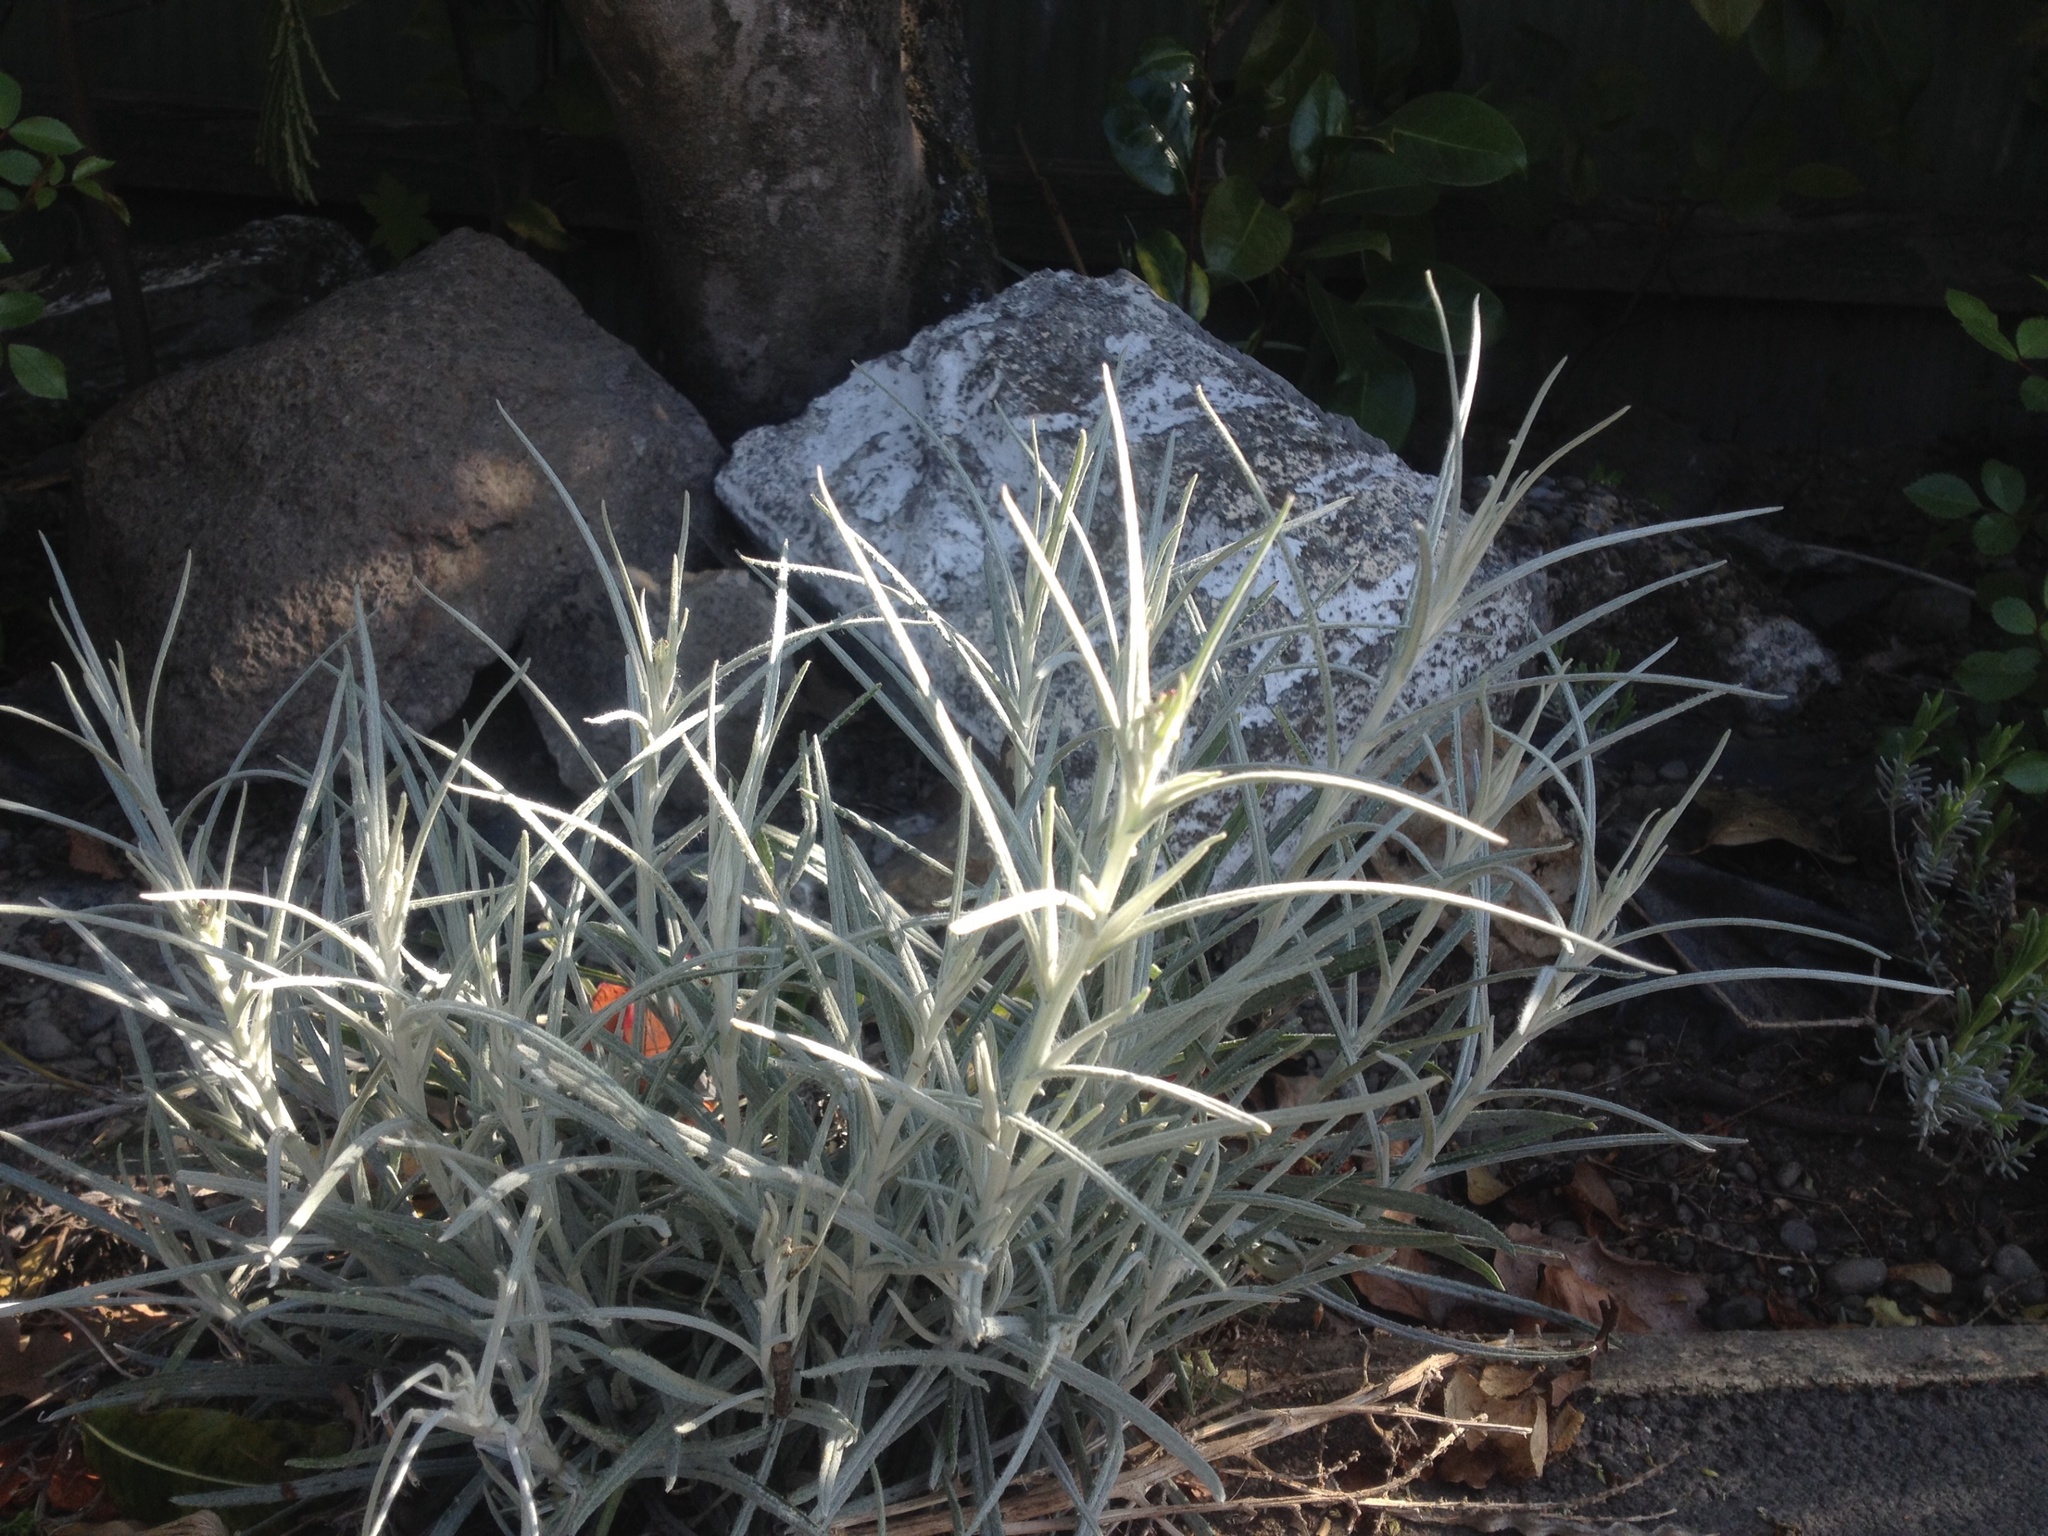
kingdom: Plantae
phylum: Tracheophyta
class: Magnoliopsida
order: Asterales
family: Asteraceae
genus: Senecio
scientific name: Senecio quadridentatus
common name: Cotton fireweed
